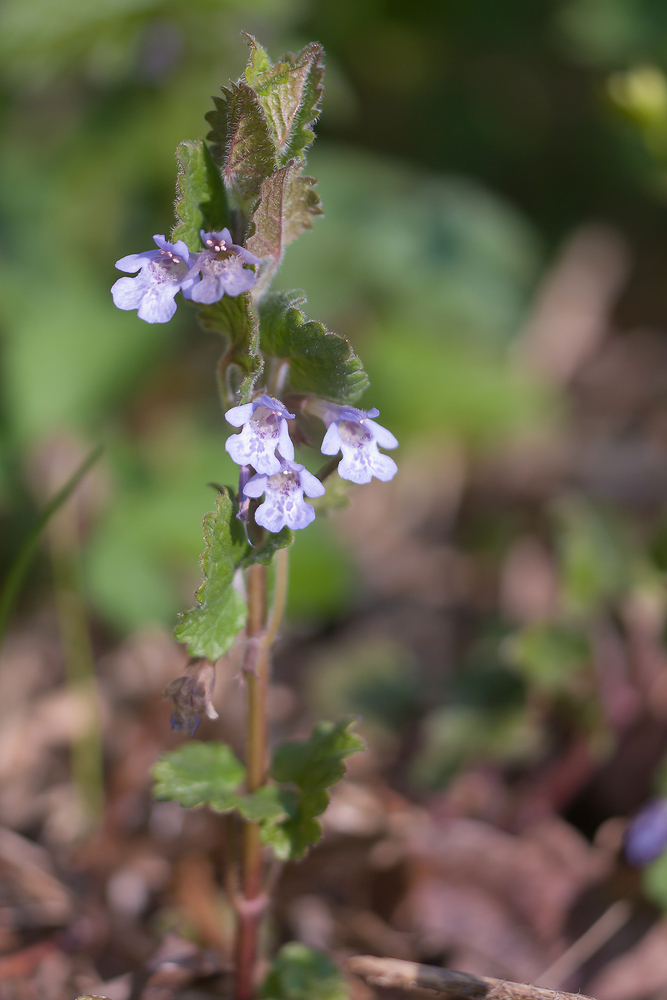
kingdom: Plantae
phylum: Tracheophyta
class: Magnoliopsida
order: Lamiales
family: Lamiaceae
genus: Glechoma
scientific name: Glechoma hederacea
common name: Ground ivy
